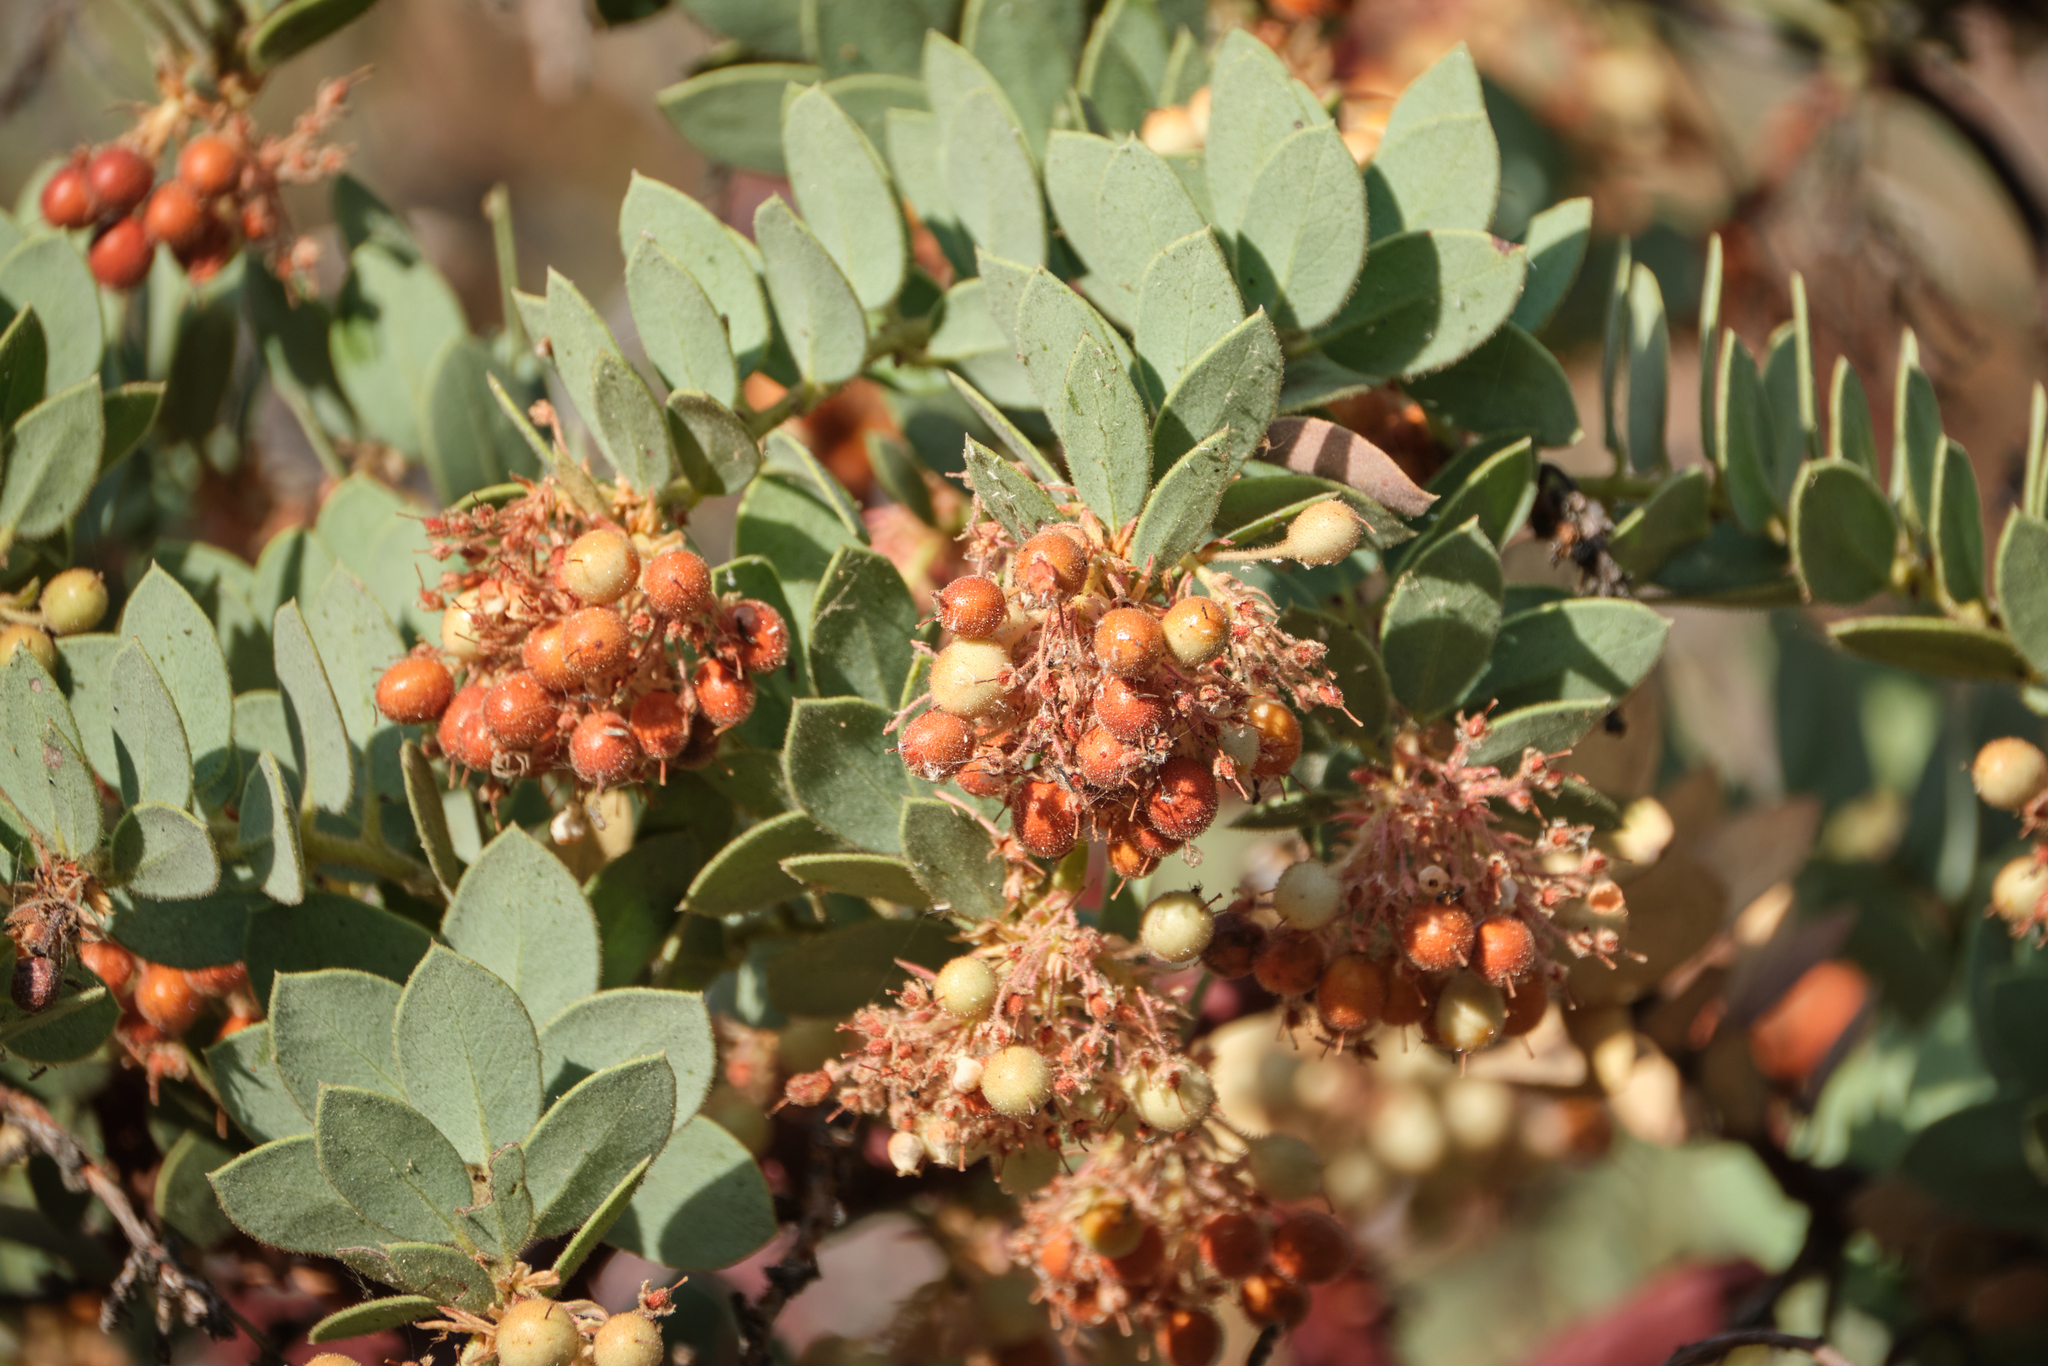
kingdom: Plantae
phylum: Tracheophyta
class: Magnoliopsida
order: Ericales
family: Ericaceae
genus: Arctostaphylos
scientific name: Arctostaphylos pringlei
